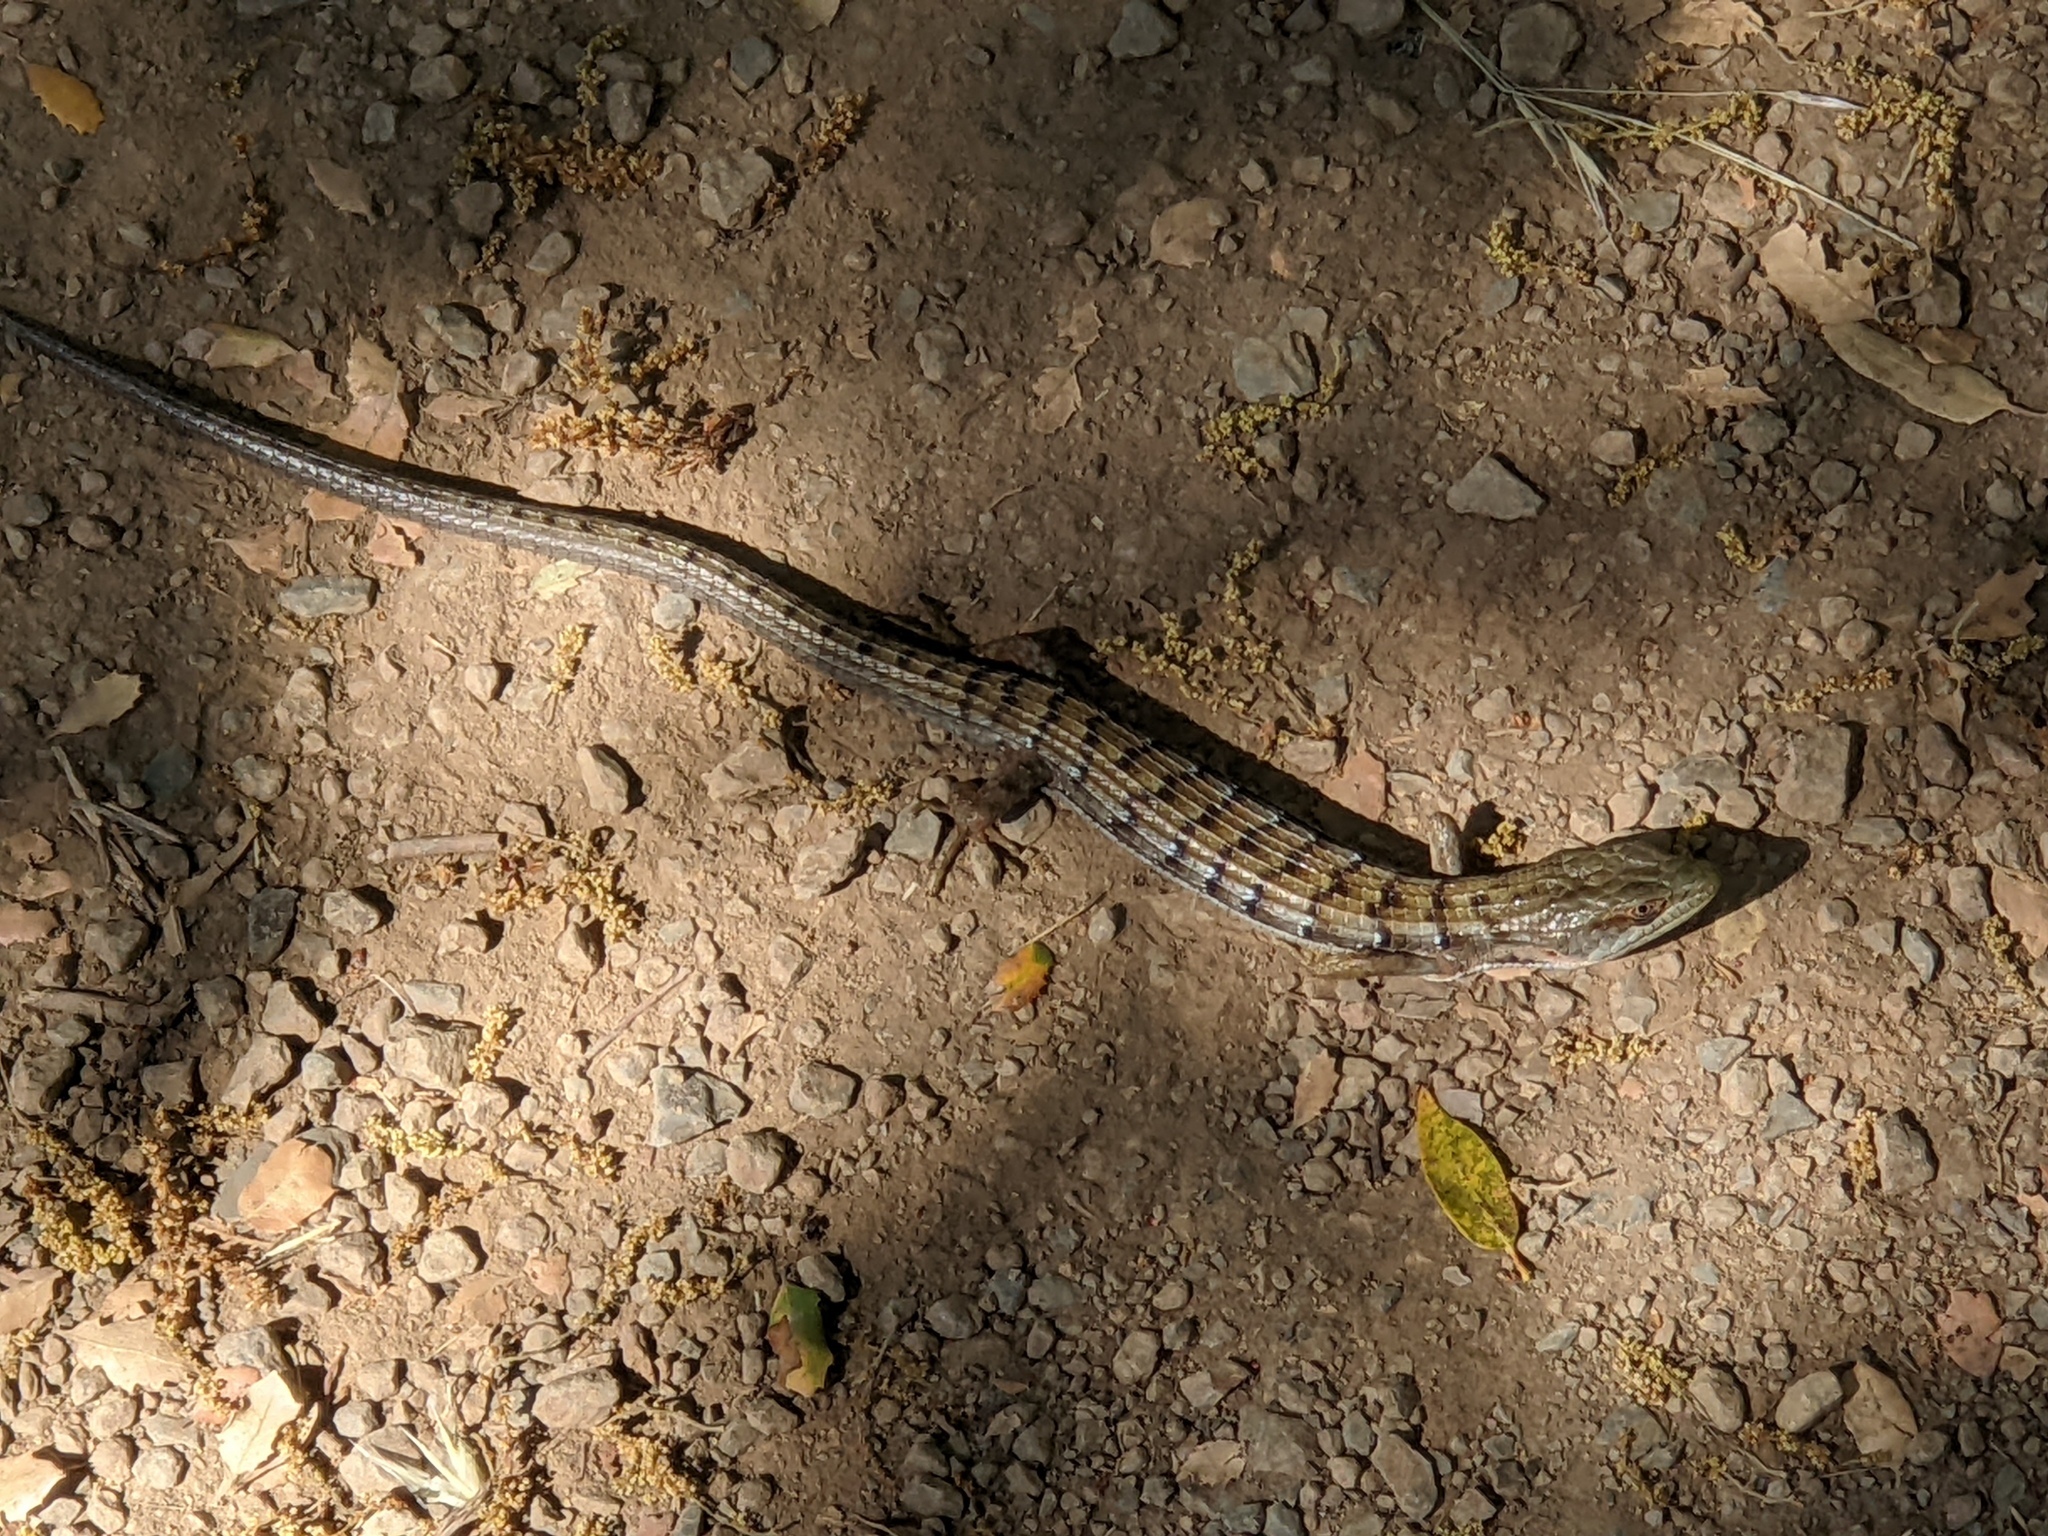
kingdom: Animalia
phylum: Chordata
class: Squamata
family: Anguidae
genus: Elgaria
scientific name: Elgaria multicarinata
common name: Southern alligator lizard
